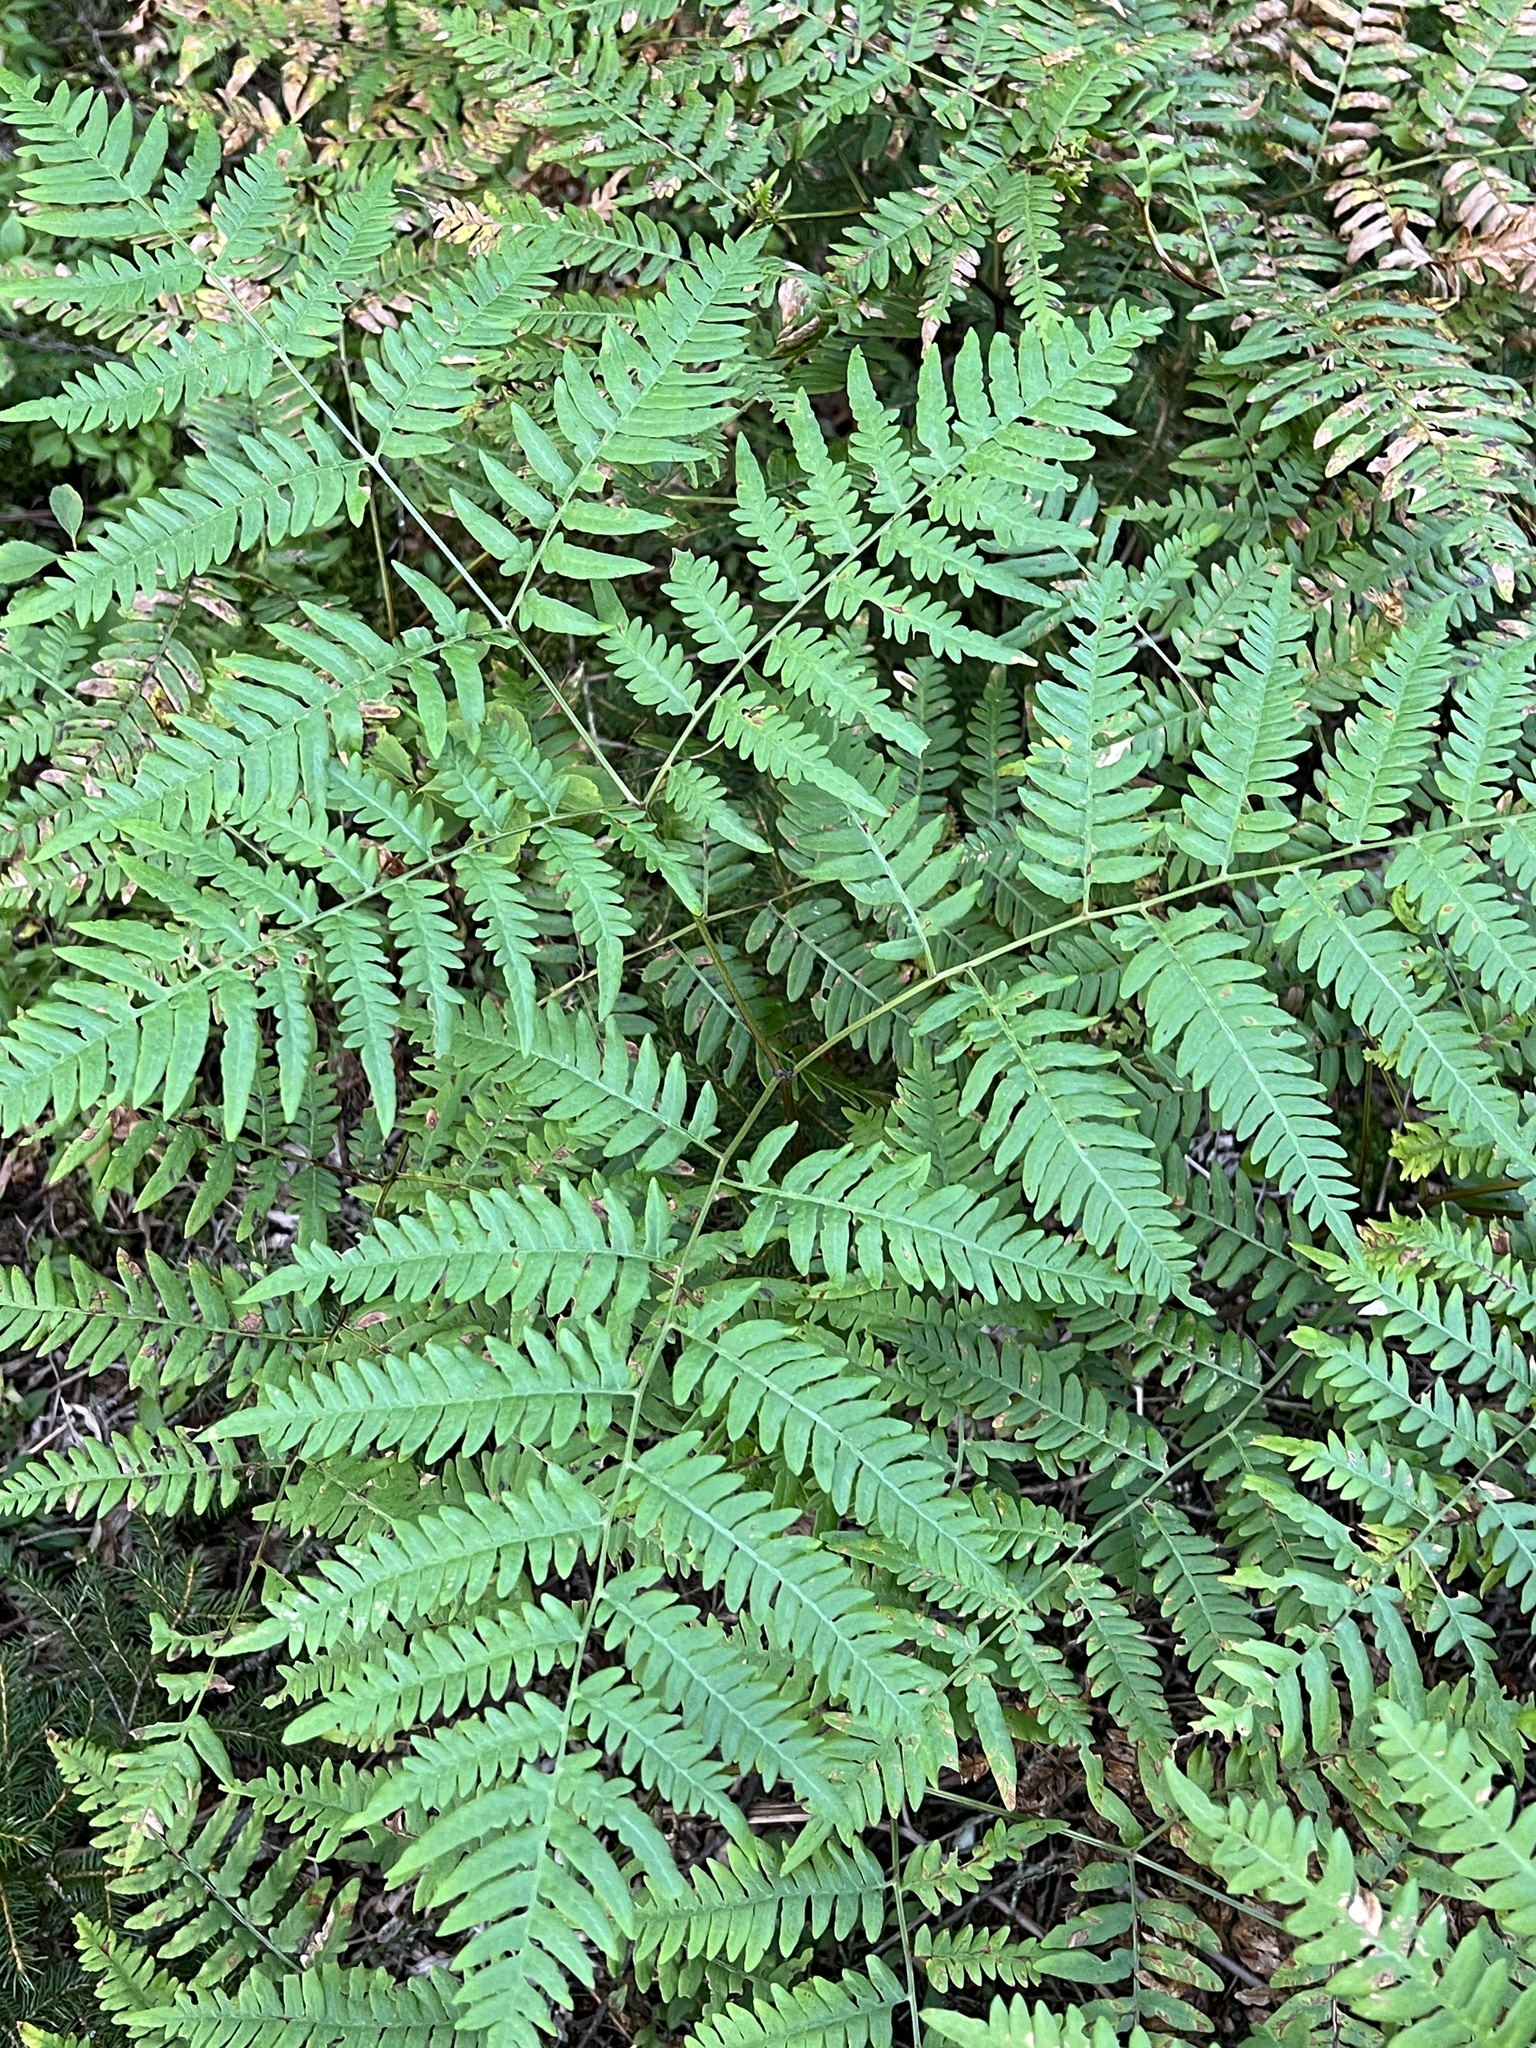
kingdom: Plantae
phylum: Tracheophyta
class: Polypodiopsida
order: Polypodiales
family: Dennstaedtiaceae
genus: Pteridium
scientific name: Pteridium aquilinum
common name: Bracken
